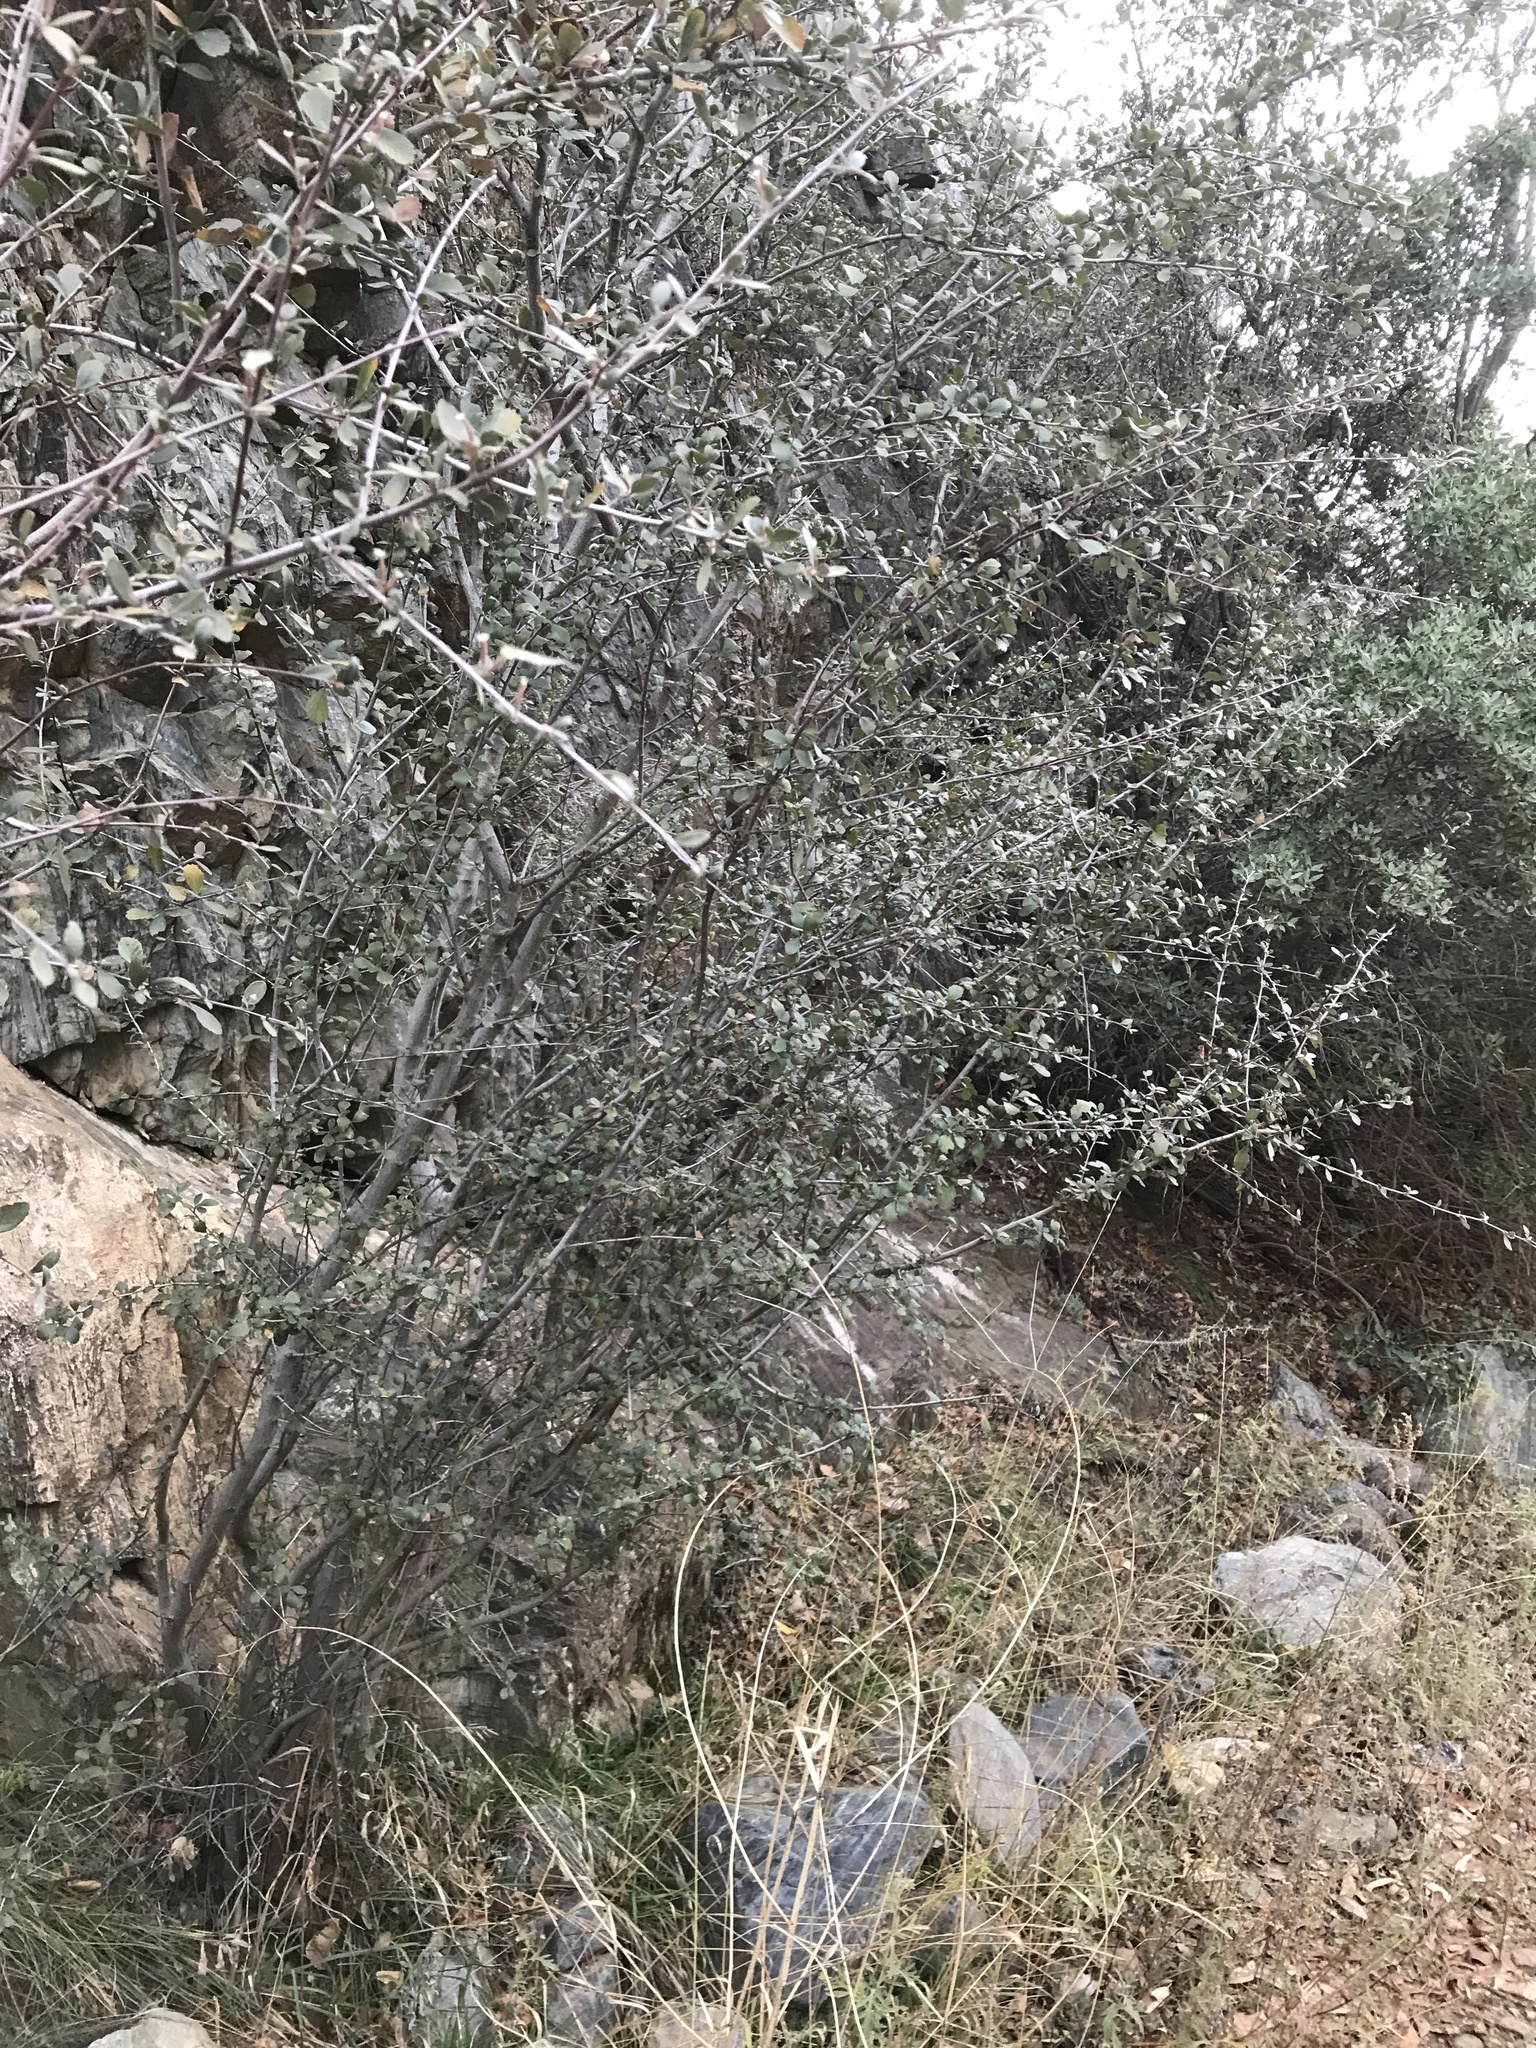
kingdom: Plantae
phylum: Tracheophyta
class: Magnoliopsida
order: Rosales
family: Rosaceae
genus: Cercocarpus
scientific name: Cercocarpus montanus
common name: Alder-leaf cercocarpus
